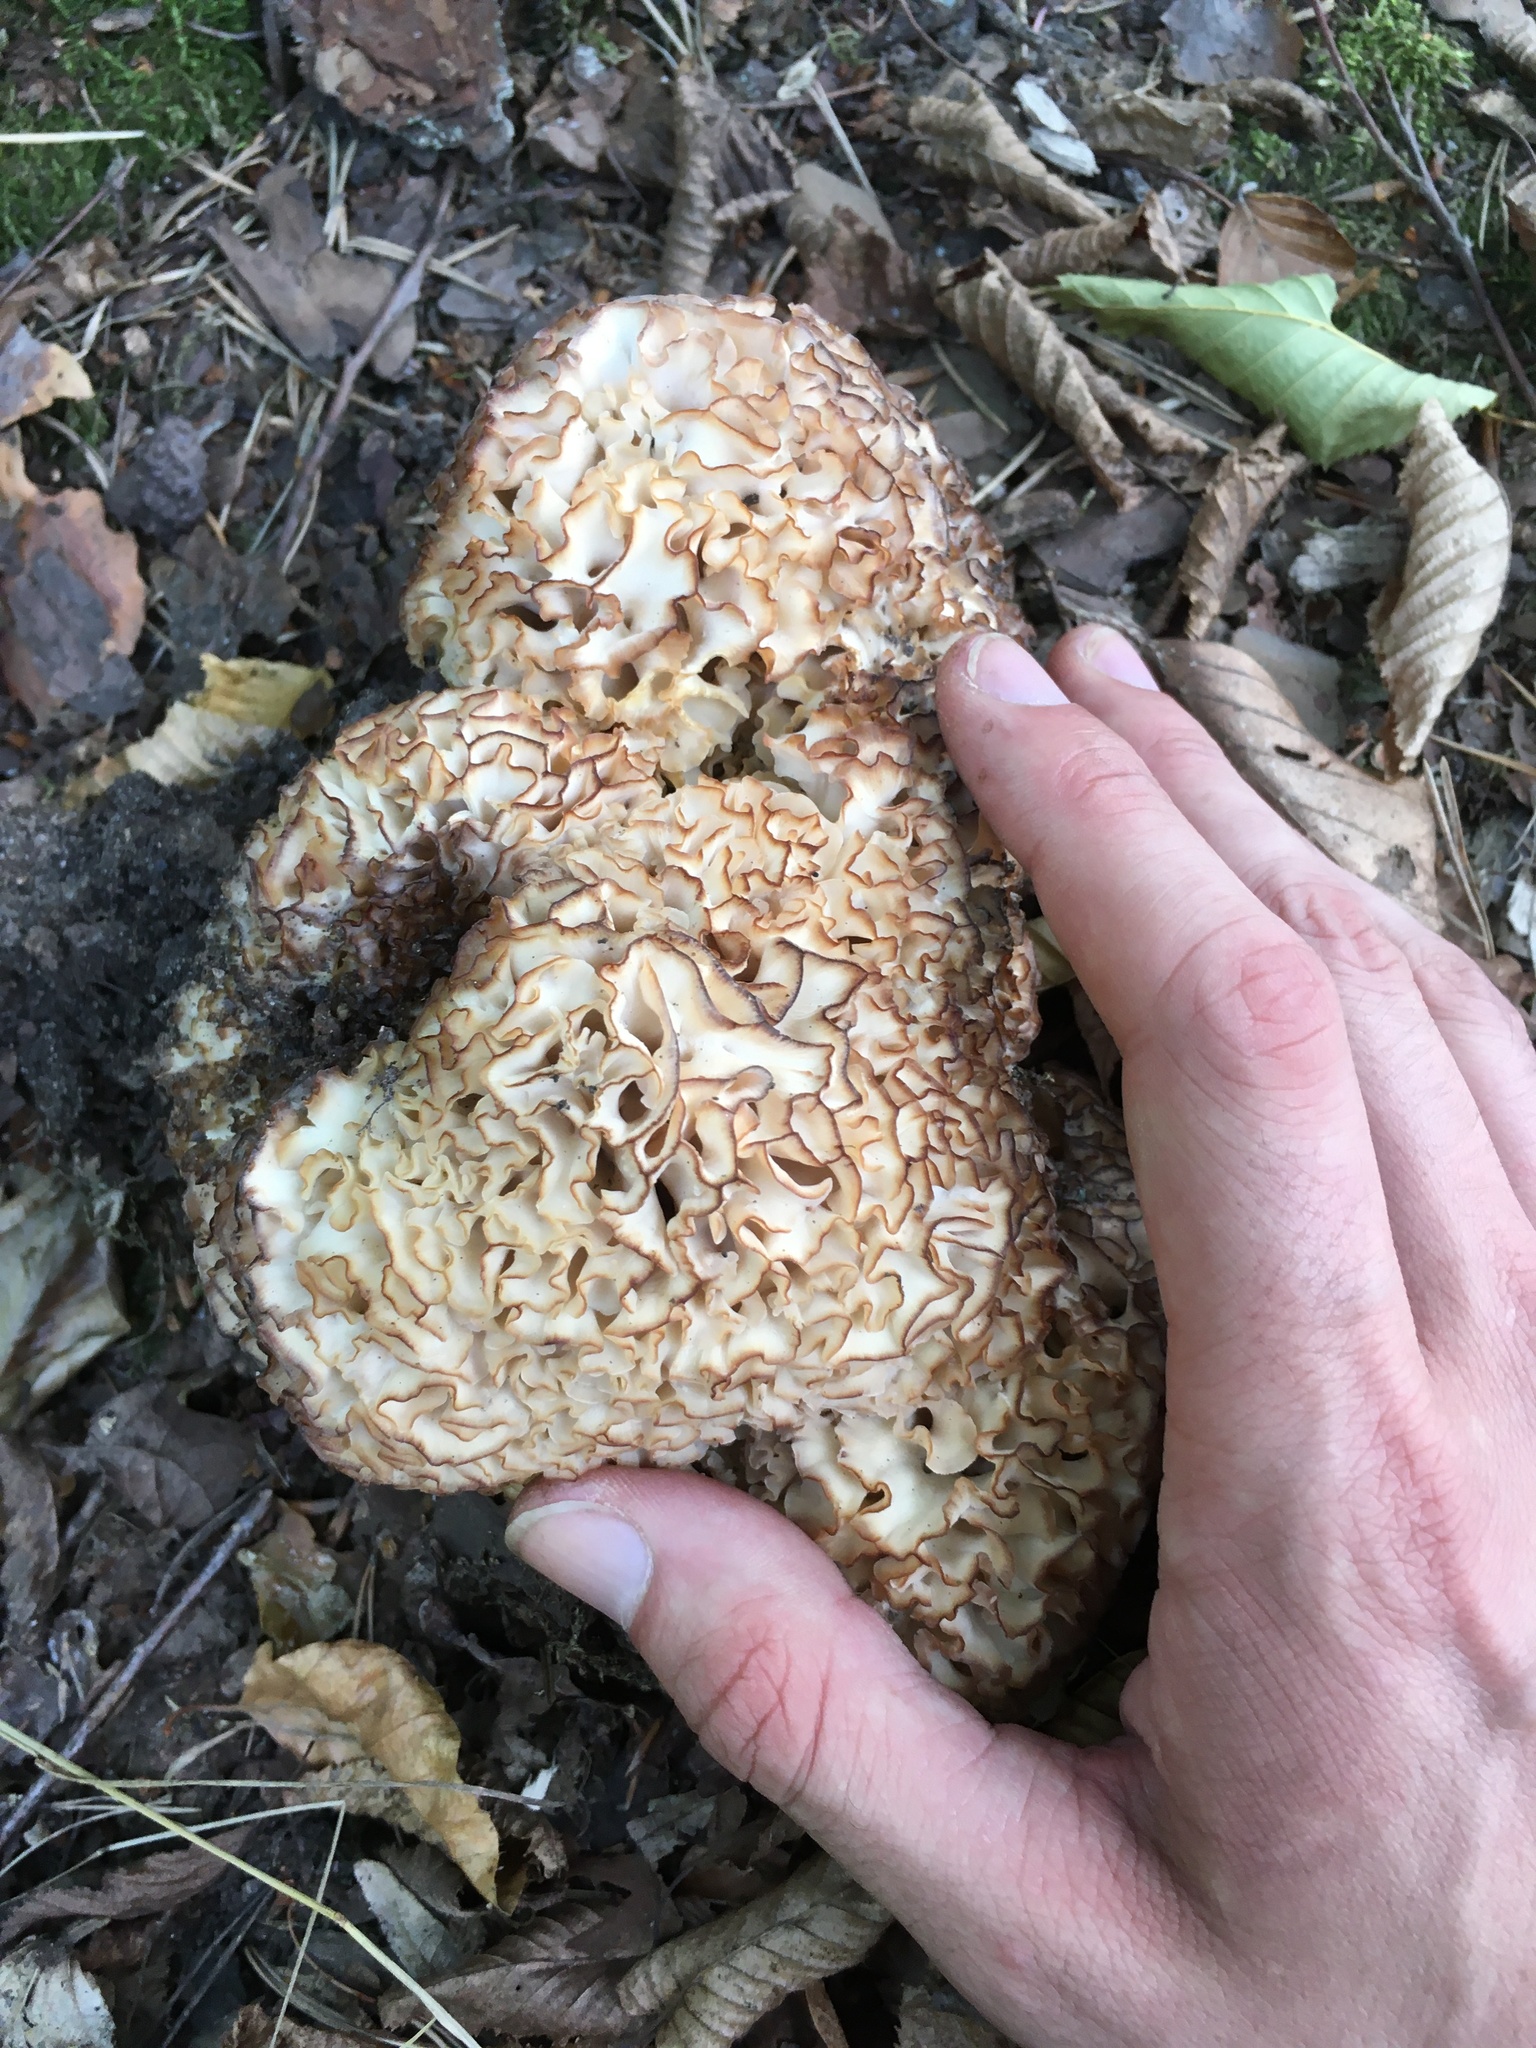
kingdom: Fungi
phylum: Basidiomycota
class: Agaricomycetes
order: Polyporales
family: Sparassidaceae
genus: Sparassis
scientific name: Sparassis crispa
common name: Brain fungus
